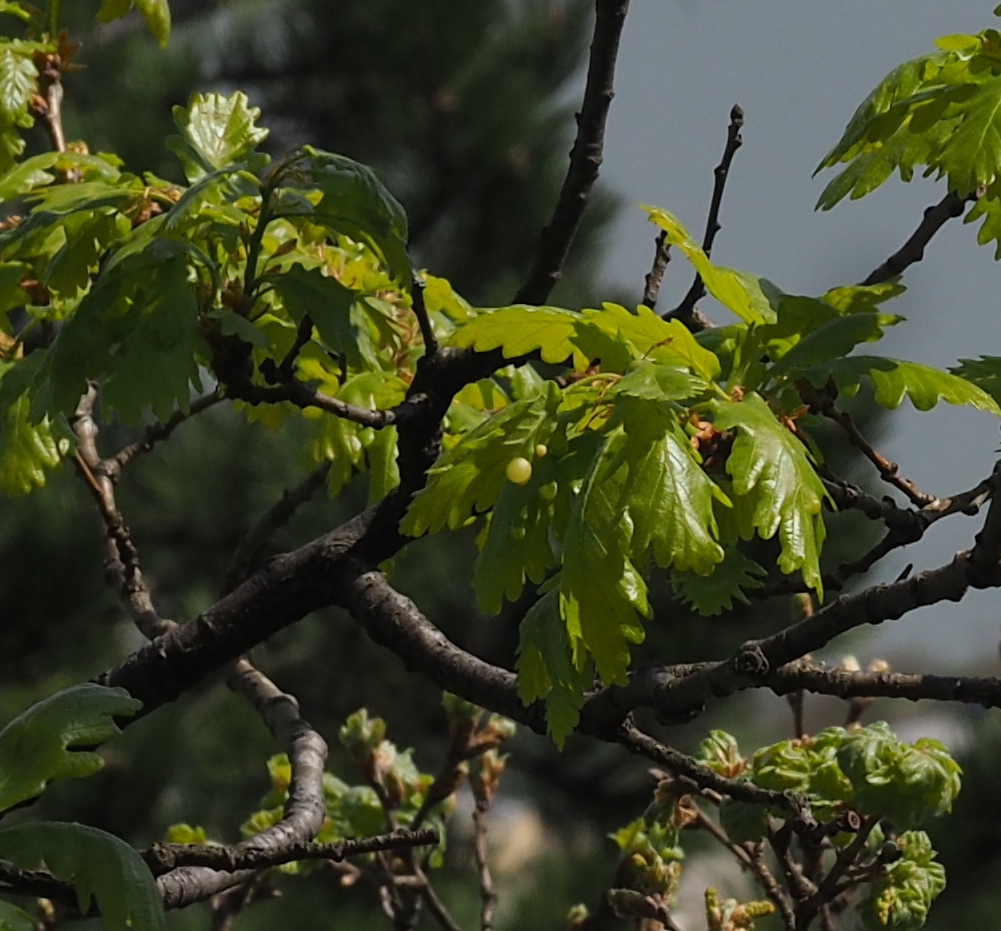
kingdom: Animalia
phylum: Arthropoda
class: Insecta
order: Hymenoptera
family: Cynipidae
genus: Neuroterus
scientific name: Neuroterus quercusbaccarum
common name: Common spangle gall
